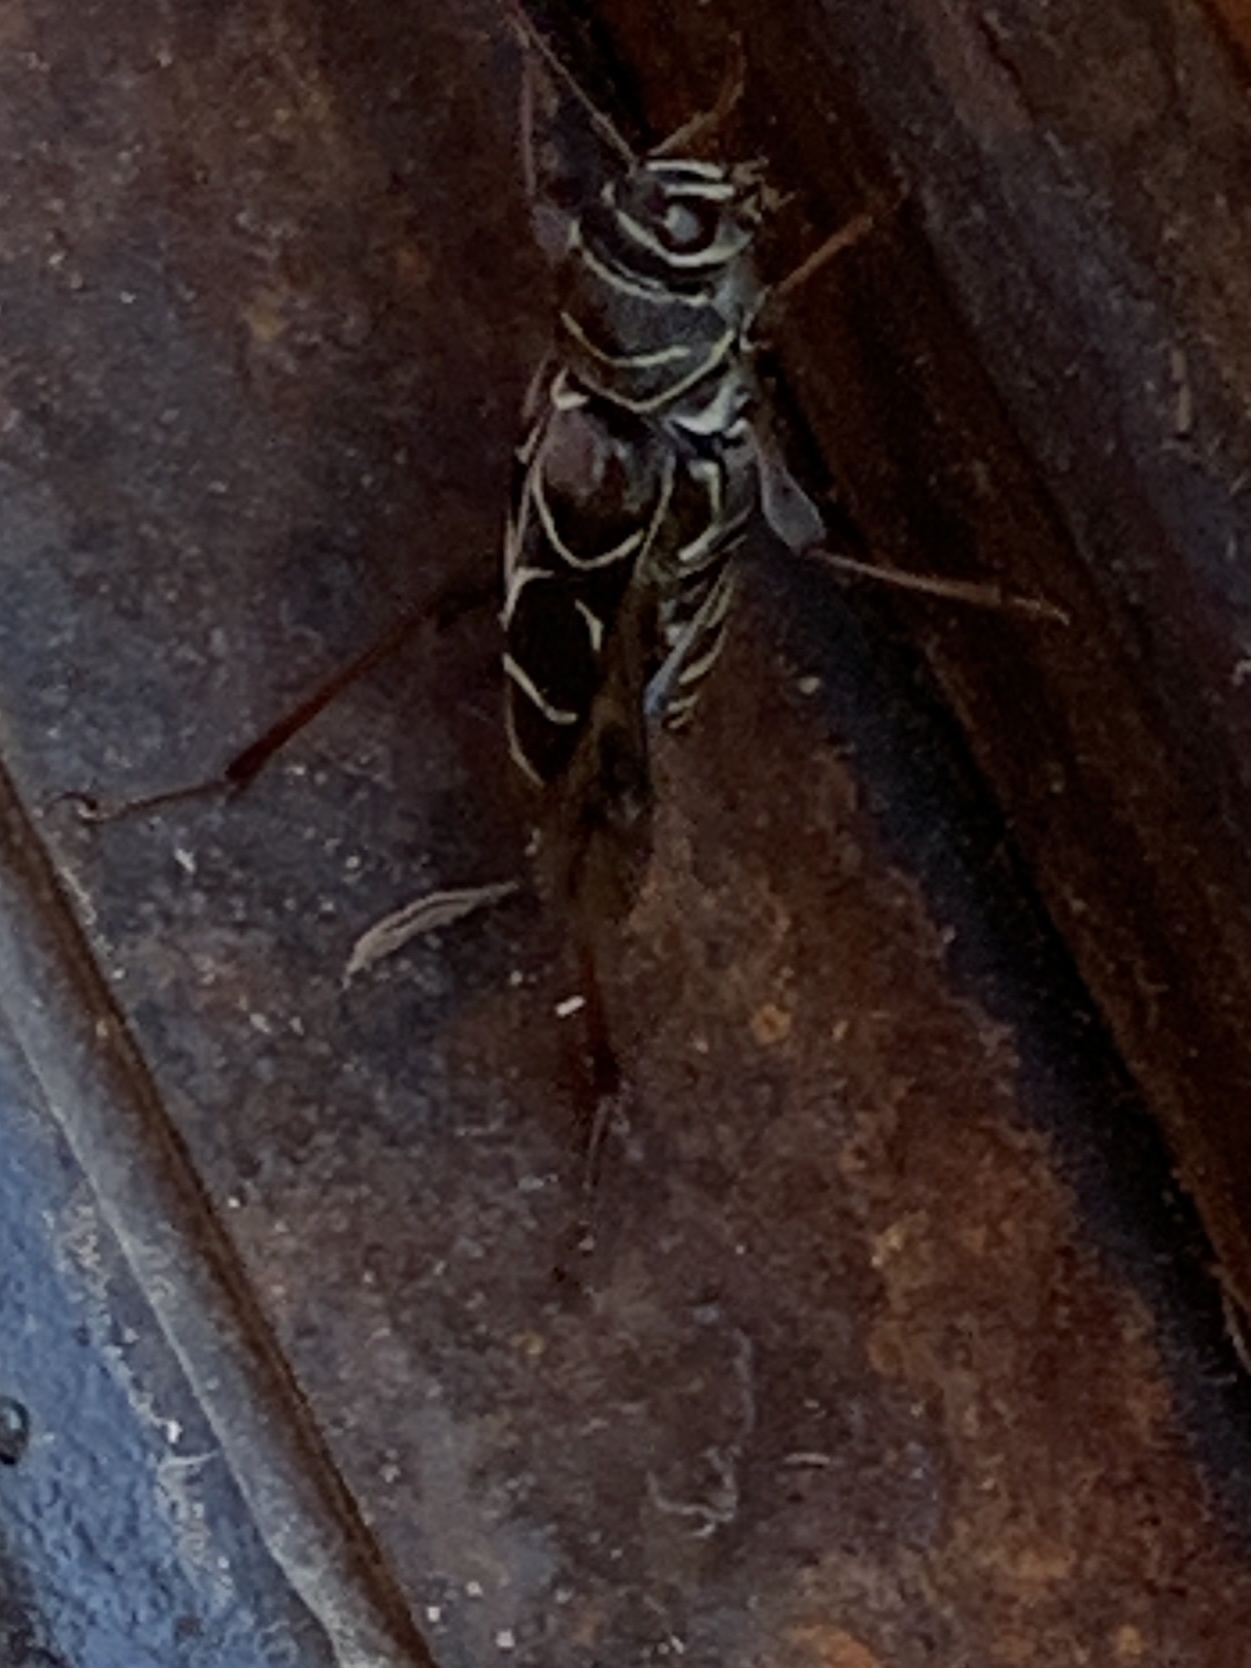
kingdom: Animalia
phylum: Arthropoda
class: Insecta
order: Coleoptera
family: Cerambycidae
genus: Neoclytus
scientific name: Neoclytus scutellaris
